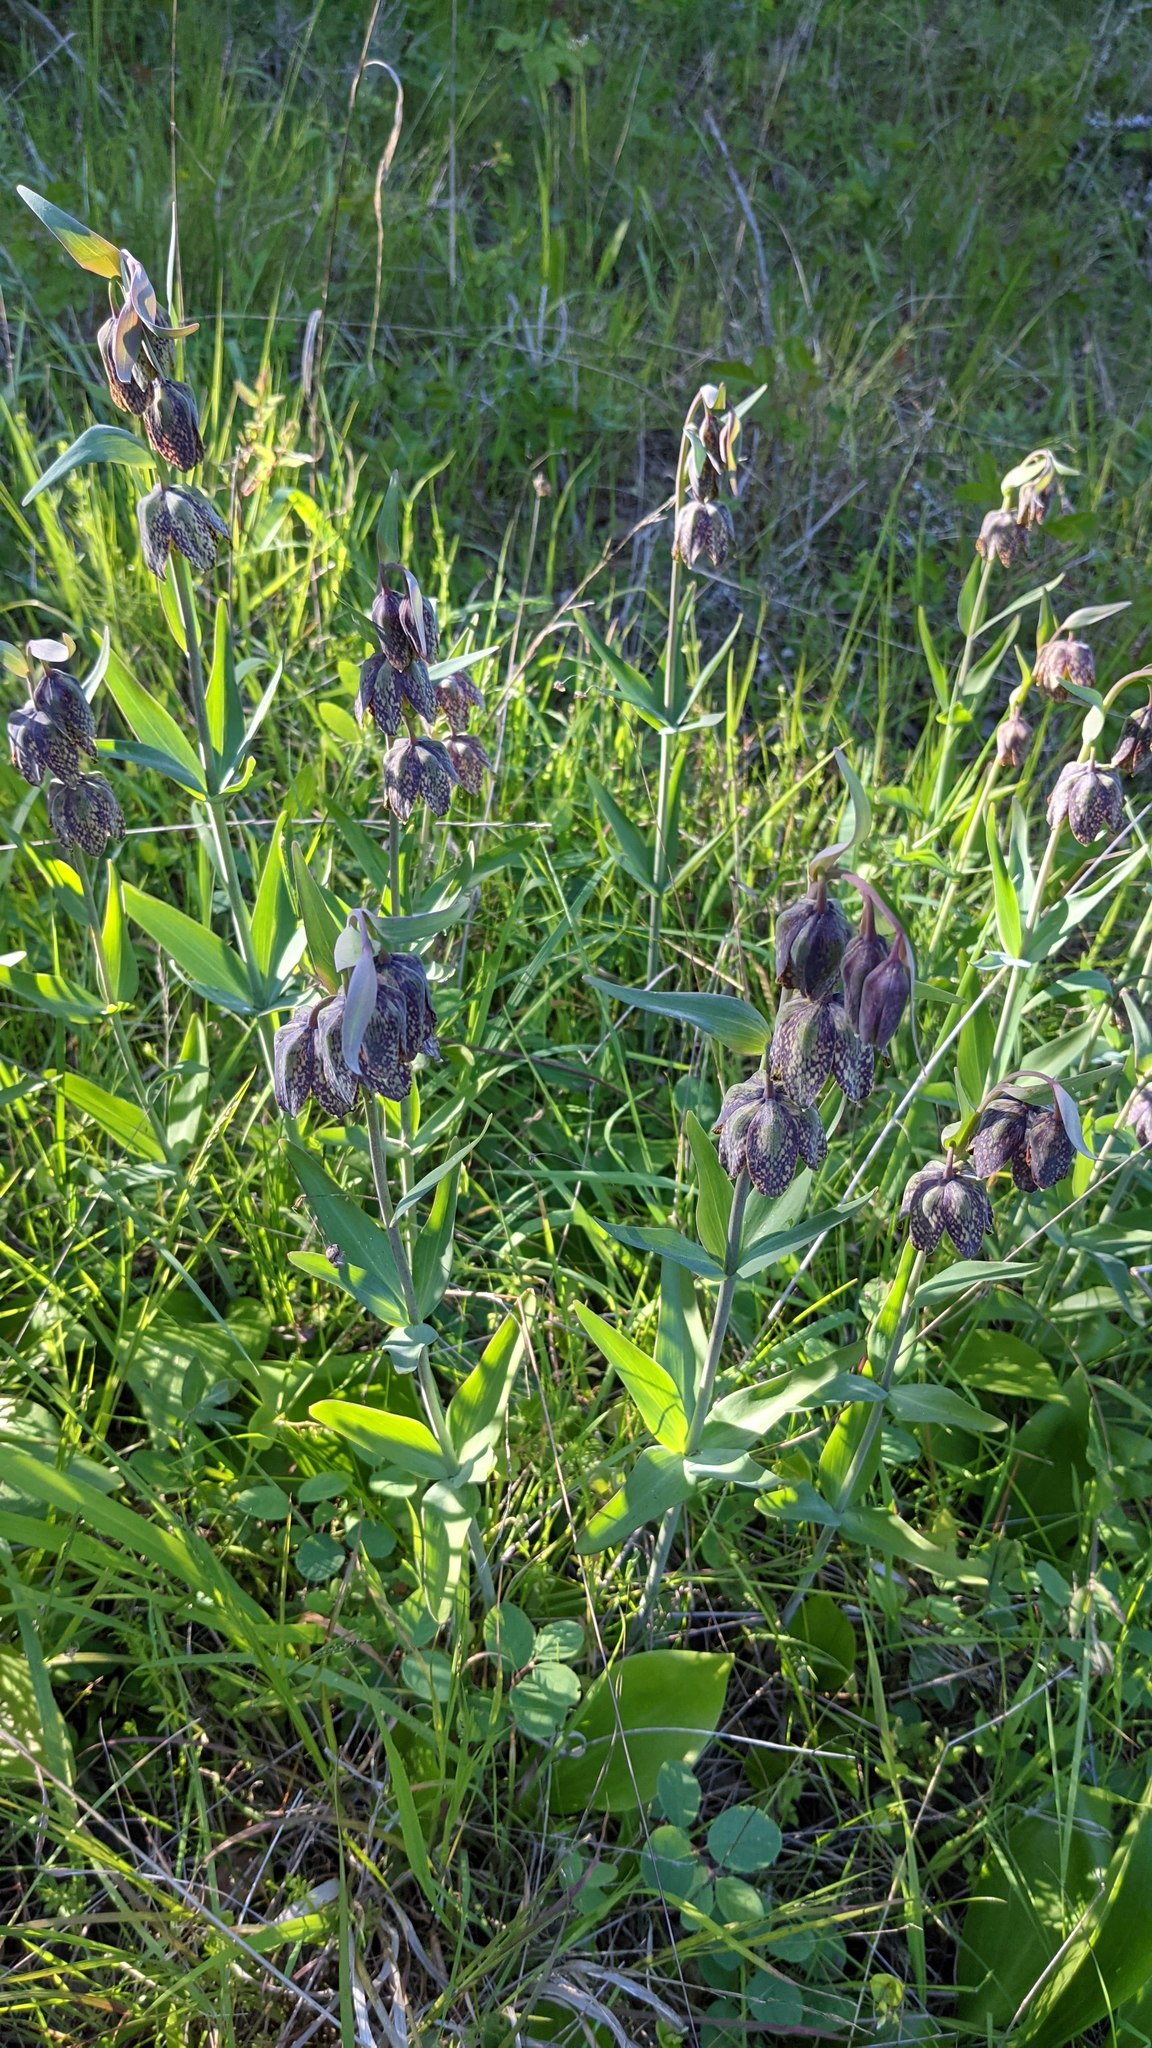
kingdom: Plantae
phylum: Tracheophyta
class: Liliopsida
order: Liliales
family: Liliaceae
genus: Fritillaria
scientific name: Fritillaria affinis
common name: Ojai fritillary
